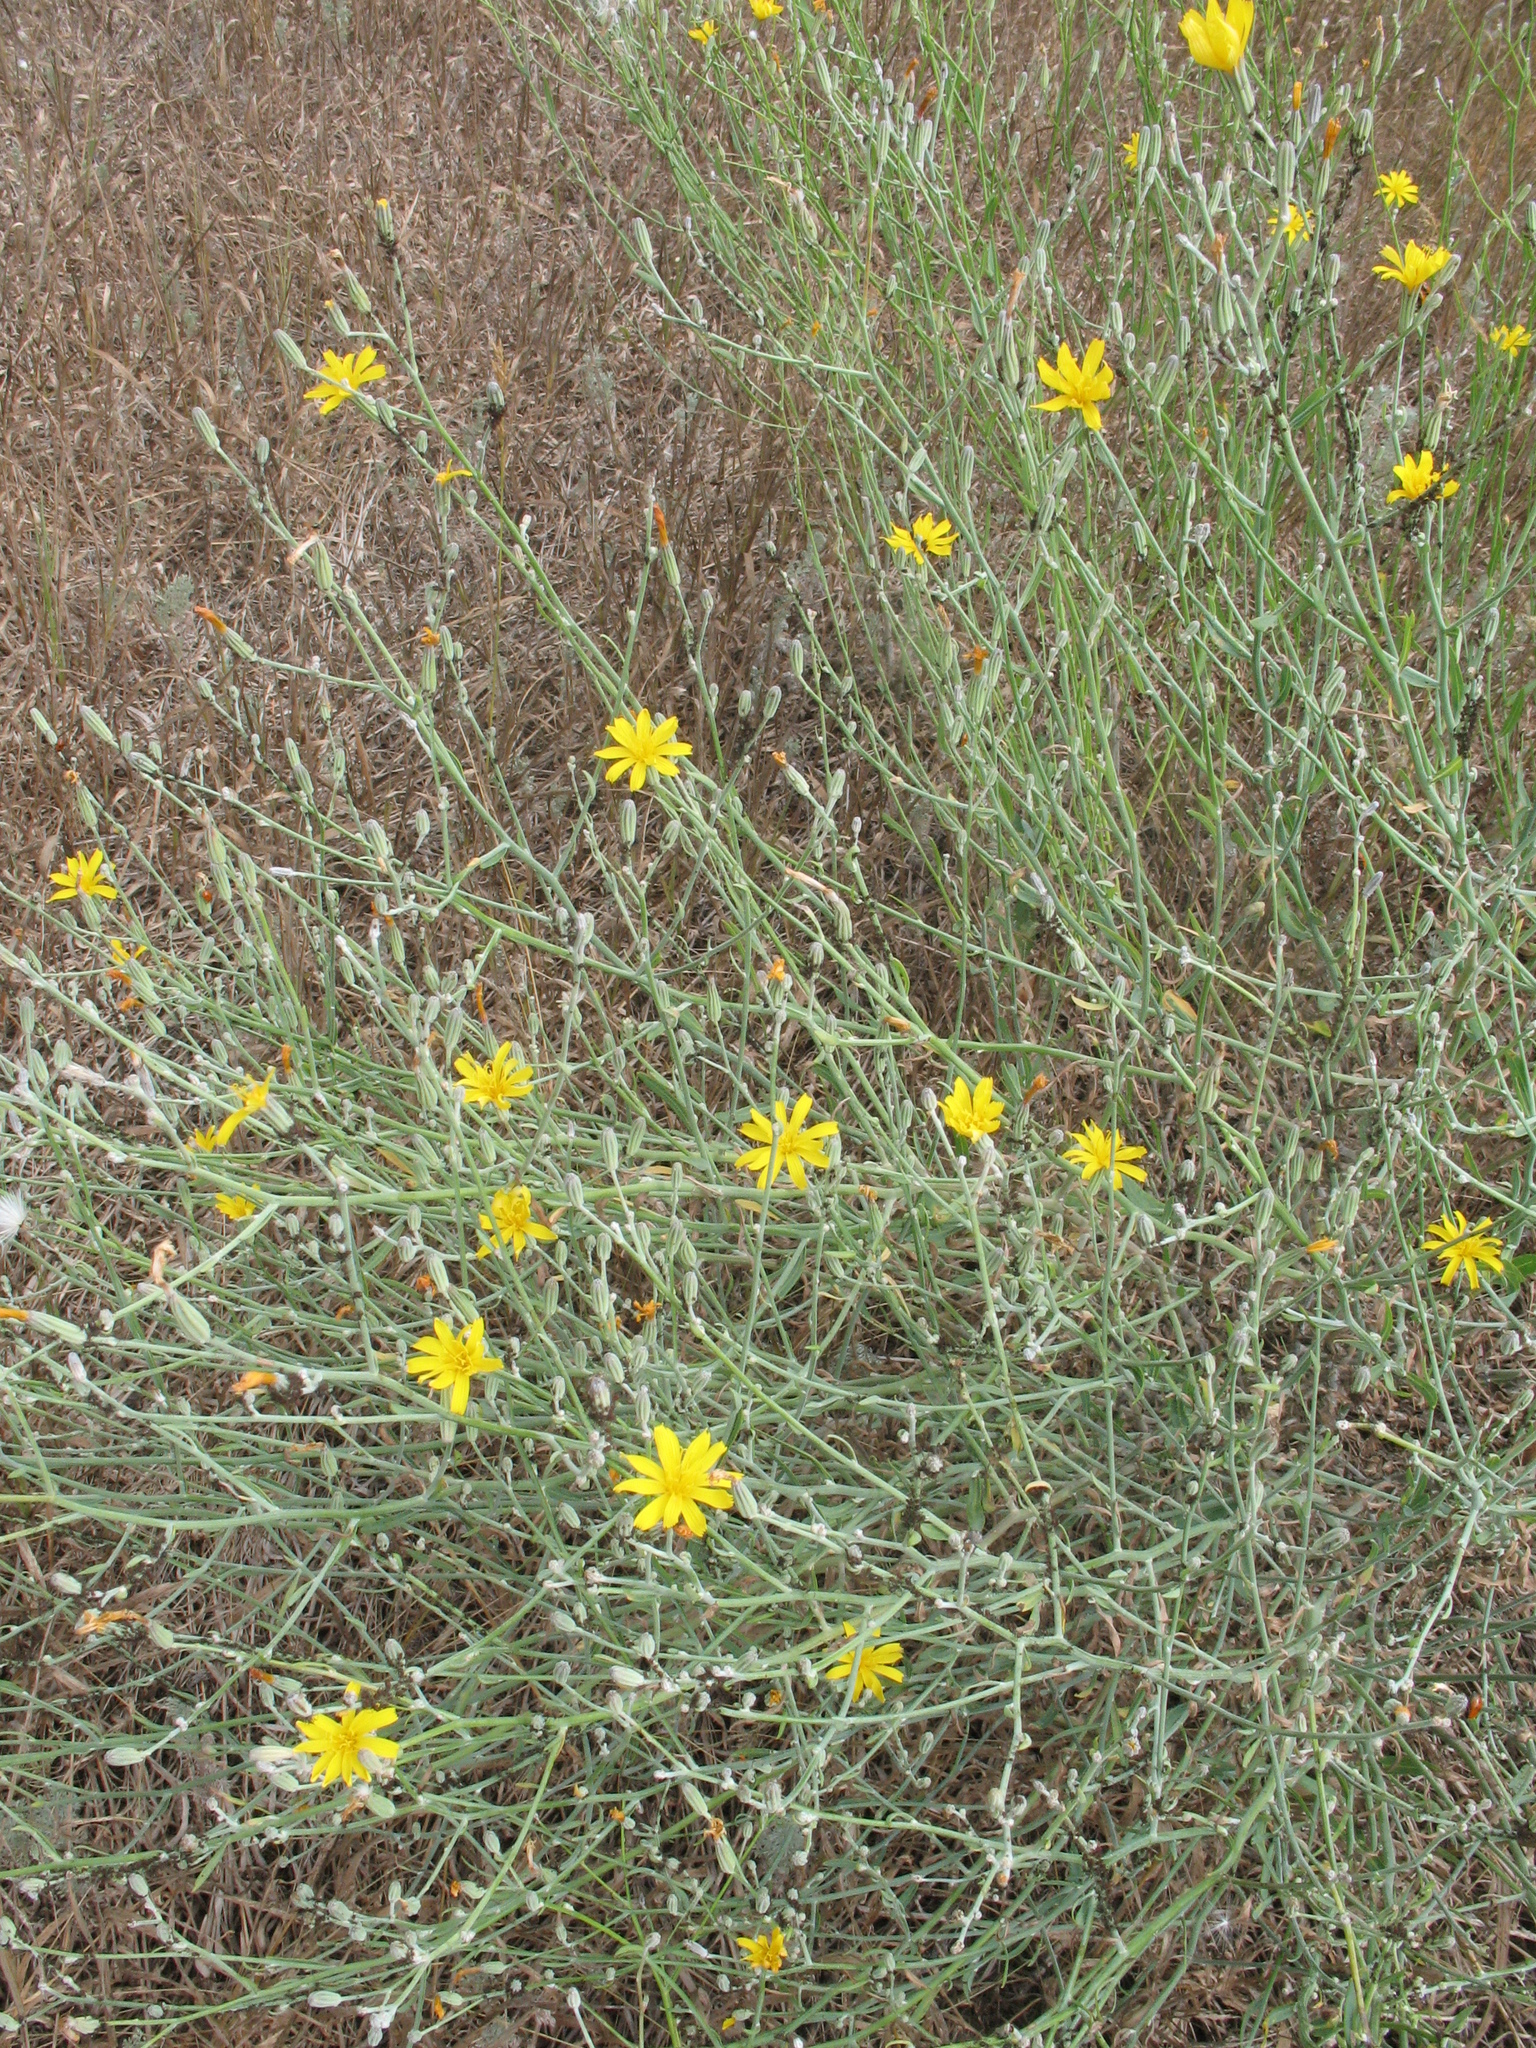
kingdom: Plantae
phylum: Tracheophyta
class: Magnoliopsida
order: Asterales
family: Asteraceae
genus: Chondrilla
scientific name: Chondrilla juncea
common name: Skeleton weed
